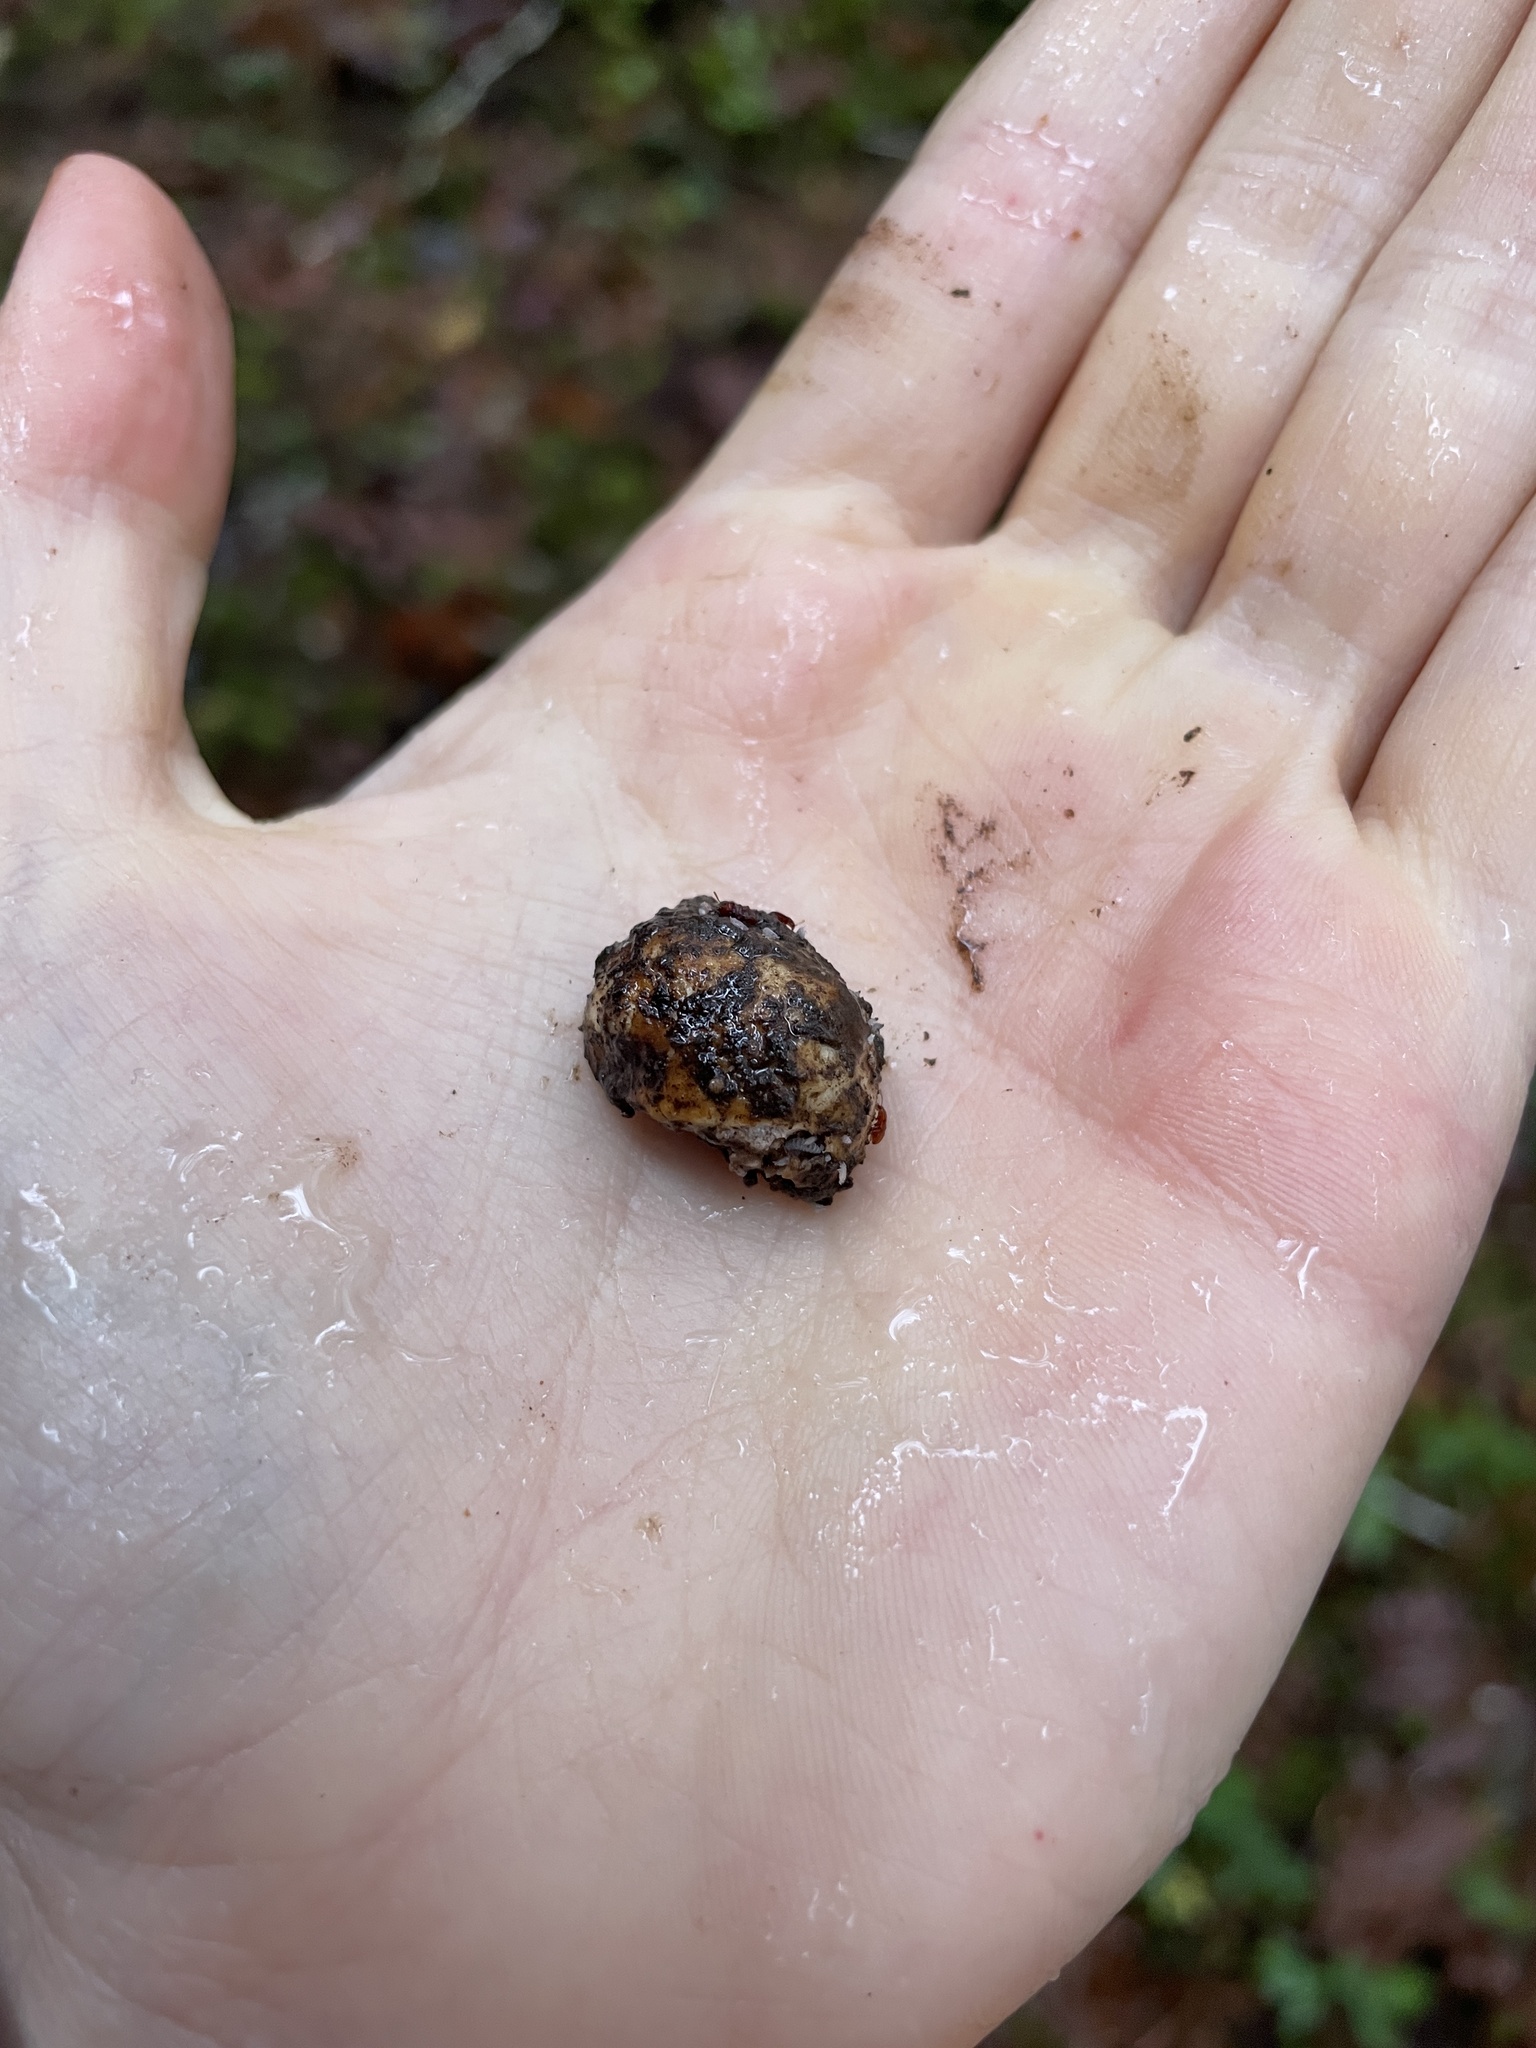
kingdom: Fungi
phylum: Ascomycota
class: Pezizomycetes
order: Pezizales
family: Tuberaceae
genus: Tuber
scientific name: Tuber oregonense
